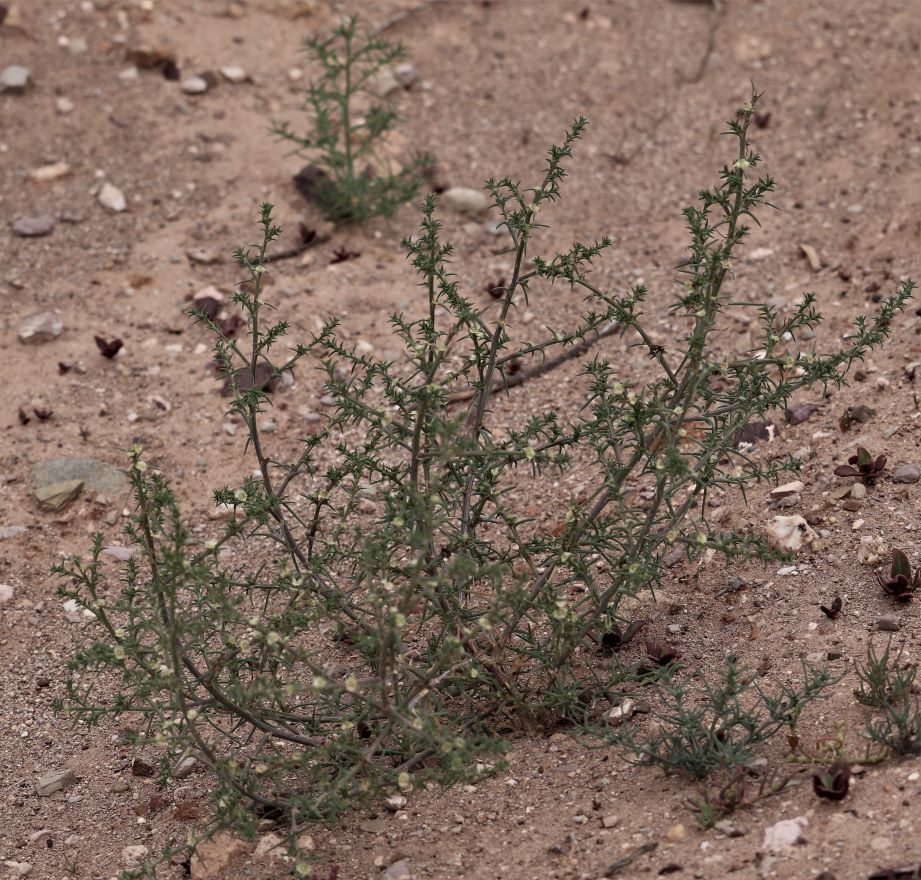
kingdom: Plantae
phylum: Tracheophyta
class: Magnoliopsida
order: Caryophyllales
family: Amaranthaceae
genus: Salsola
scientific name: Salsola kali
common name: Saltwort
